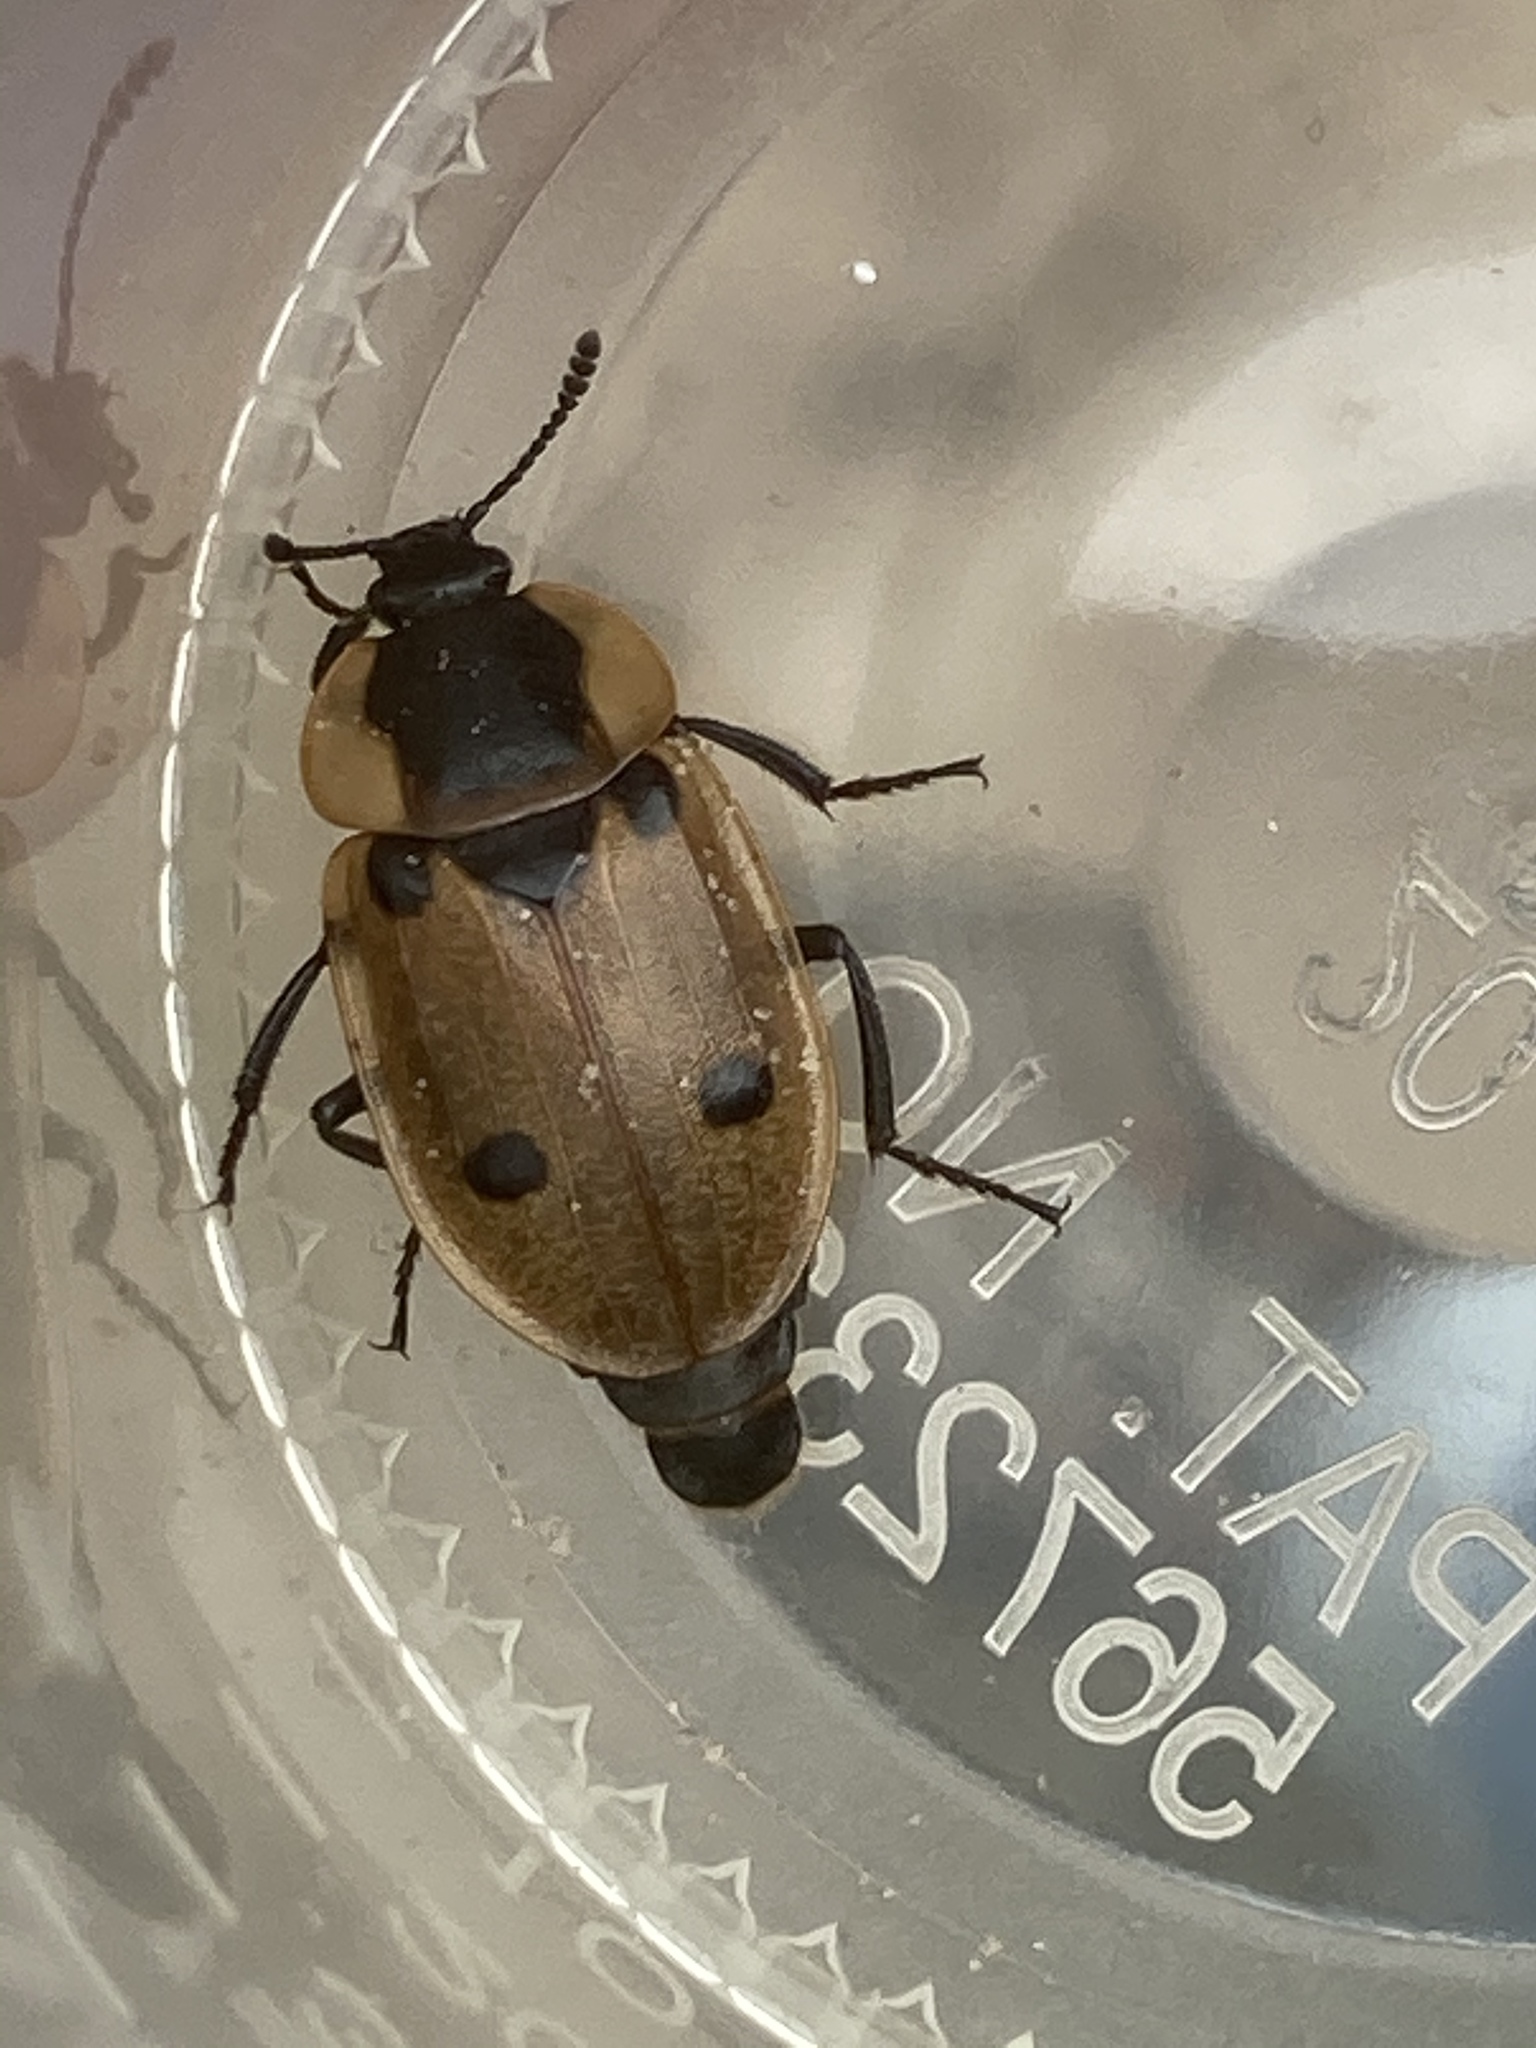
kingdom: Animalia
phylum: Arthropoda
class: Insecta
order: Coleoptera
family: Staphylinidae
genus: Dendroxena
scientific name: Dendroxena quadrimaculata
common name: Carrion beetle
